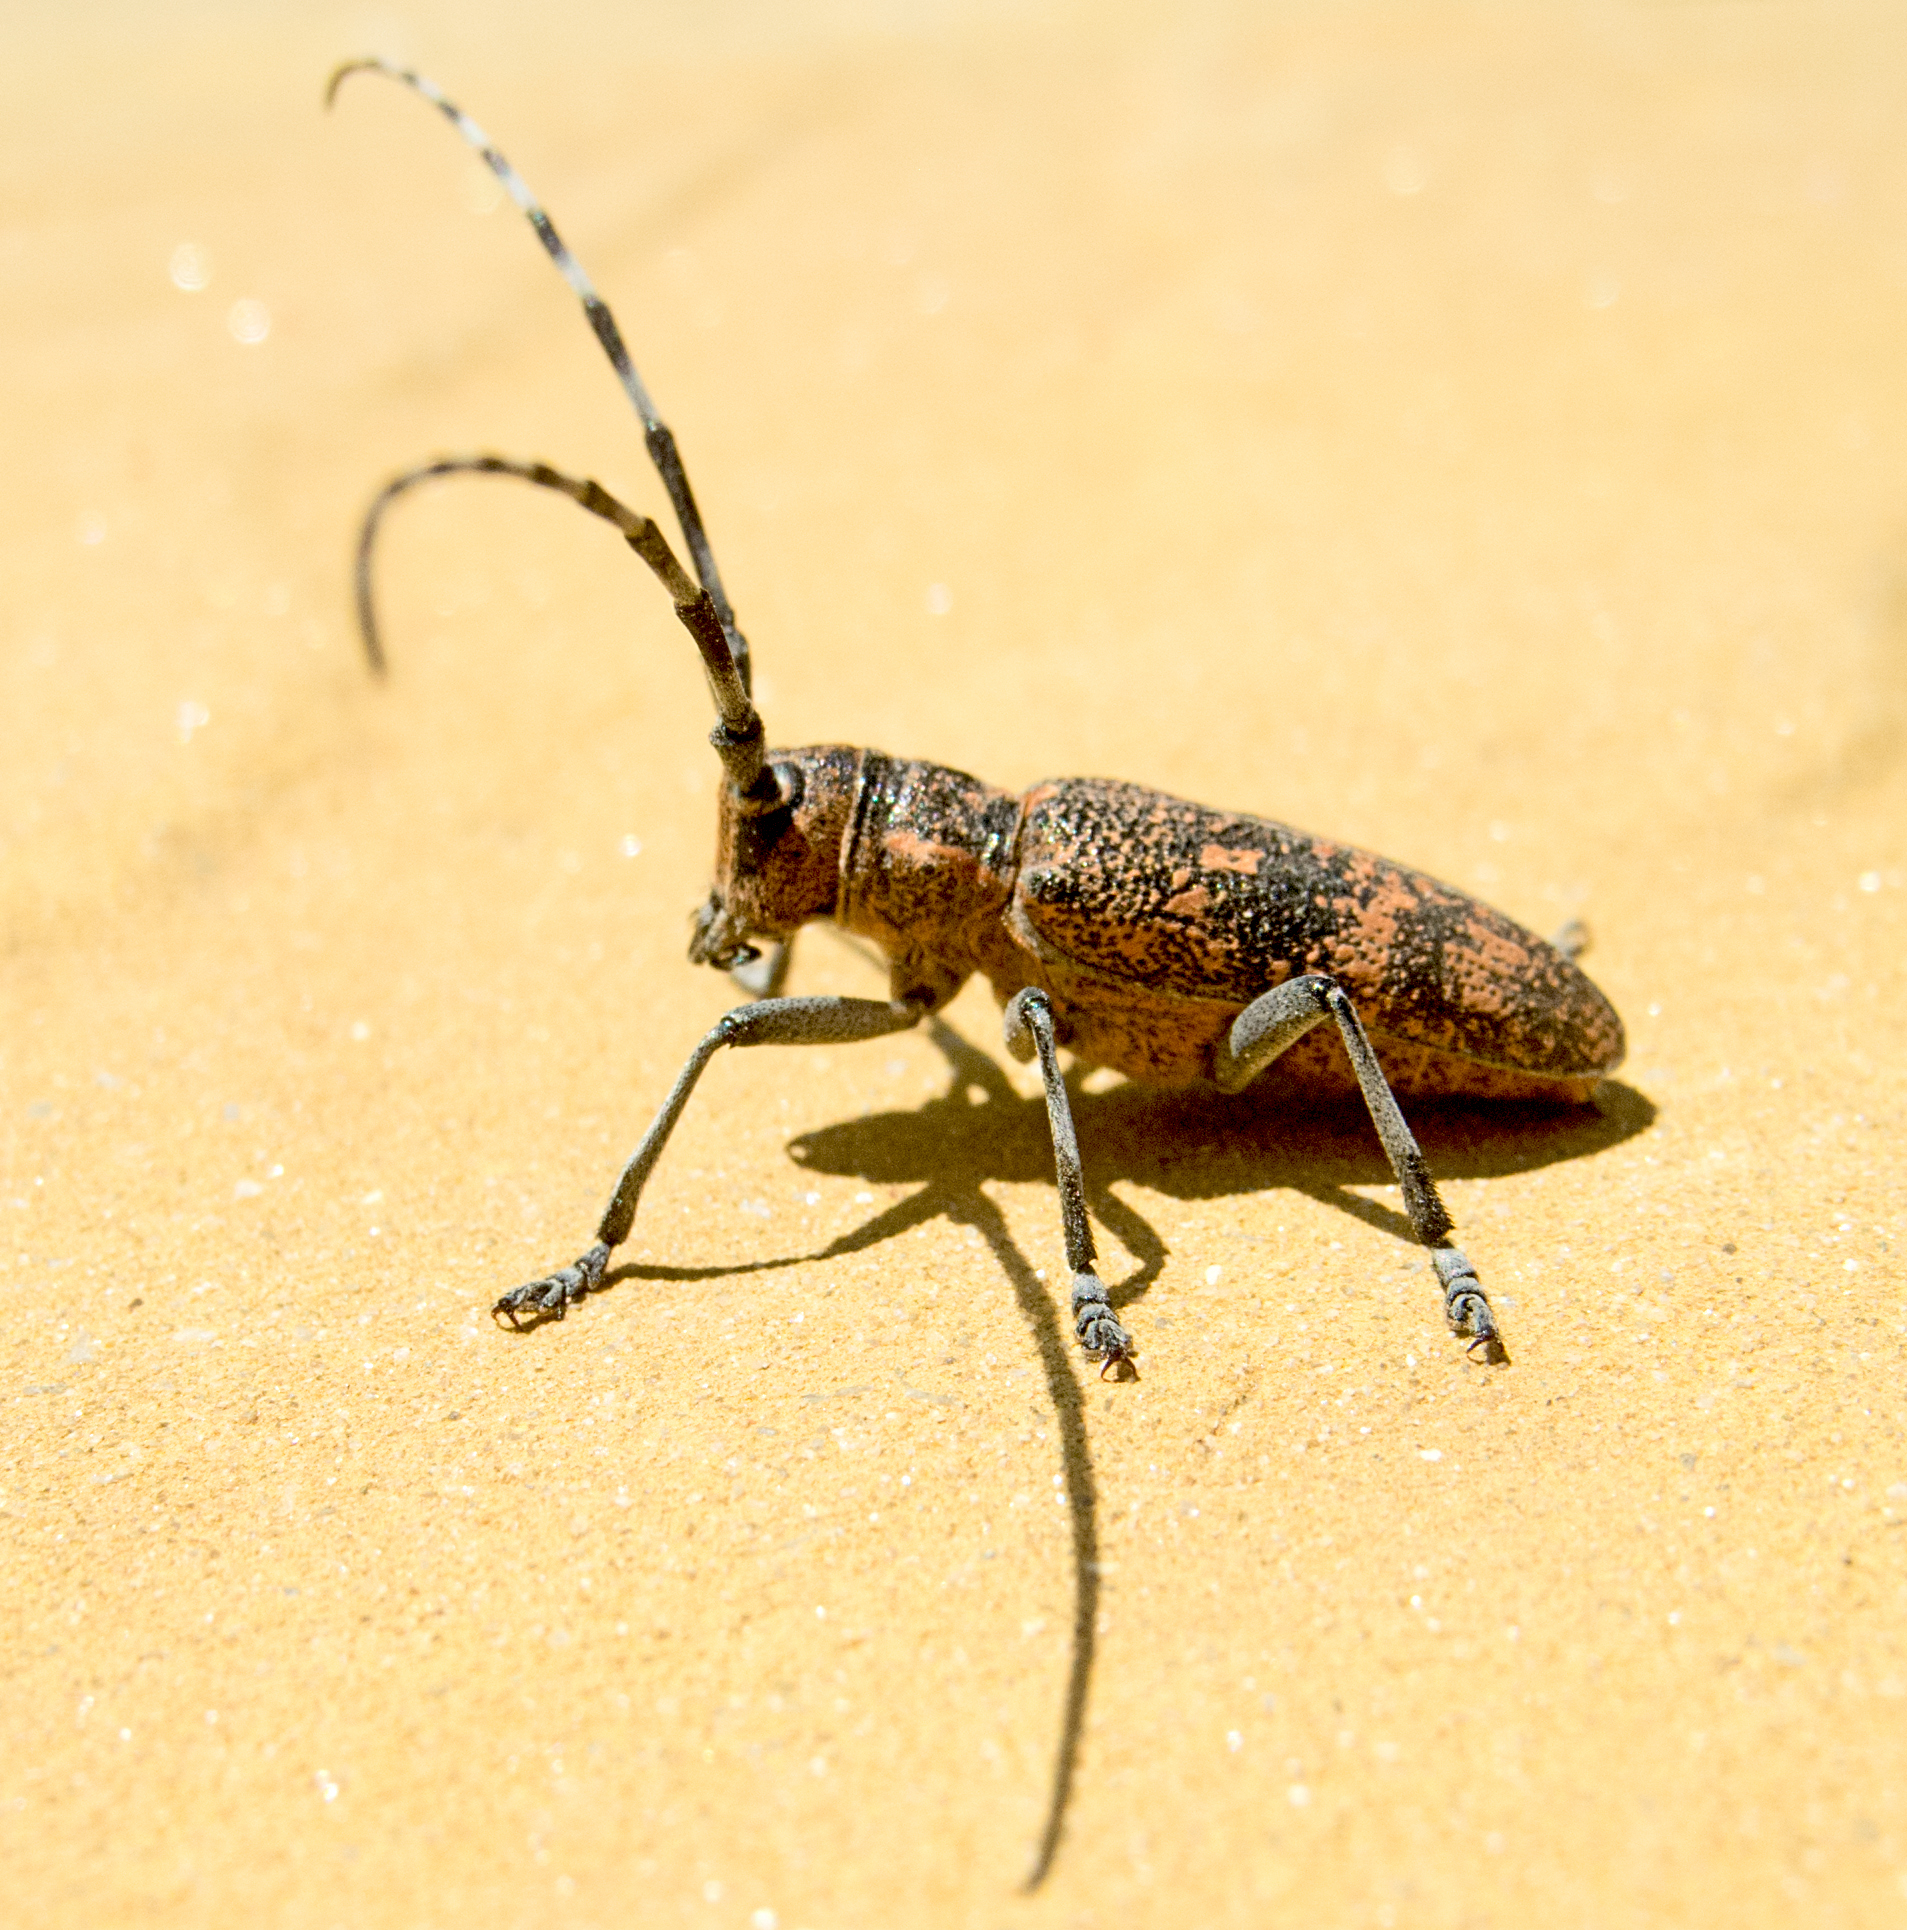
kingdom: Animalia
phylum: Arthropoda
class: Insecta
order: Coleoptera
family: Cerambycidae
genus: Monochamus
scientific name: Monochamus galloprovincialis
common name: Pine sawyer
